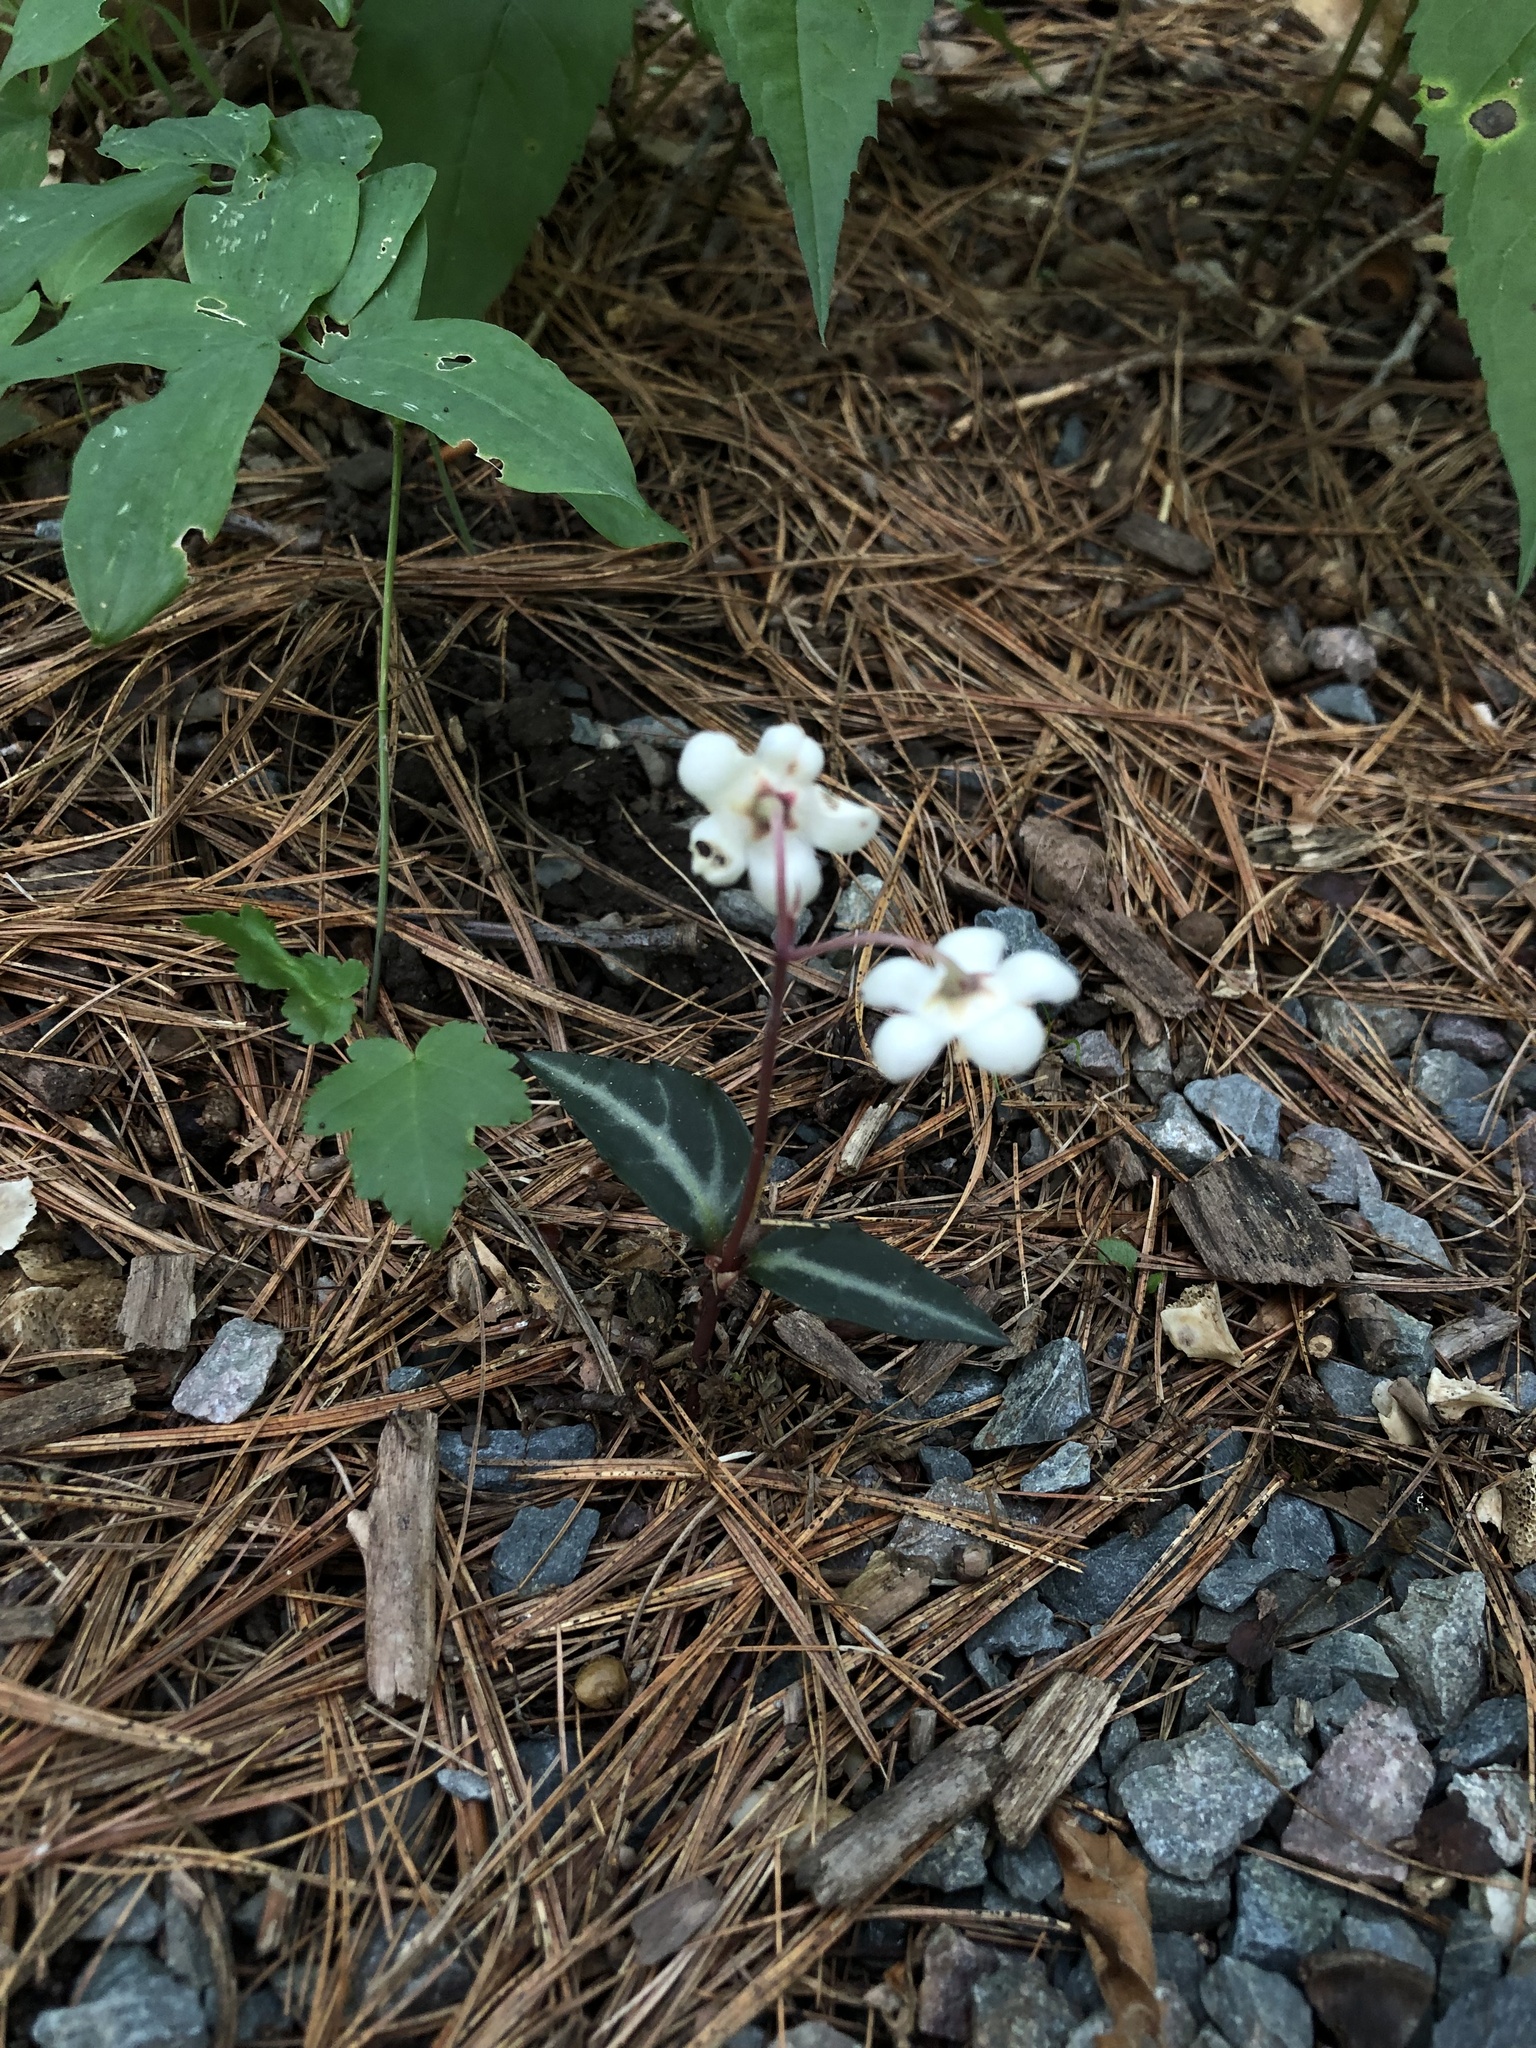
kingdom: Plantae
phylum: Tracheophyta
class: Magnoliopsida
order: Ericales
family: Ericaceae
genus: Chimaphila
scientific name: Chimaphila maculata
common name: Spotted pipsissewa
